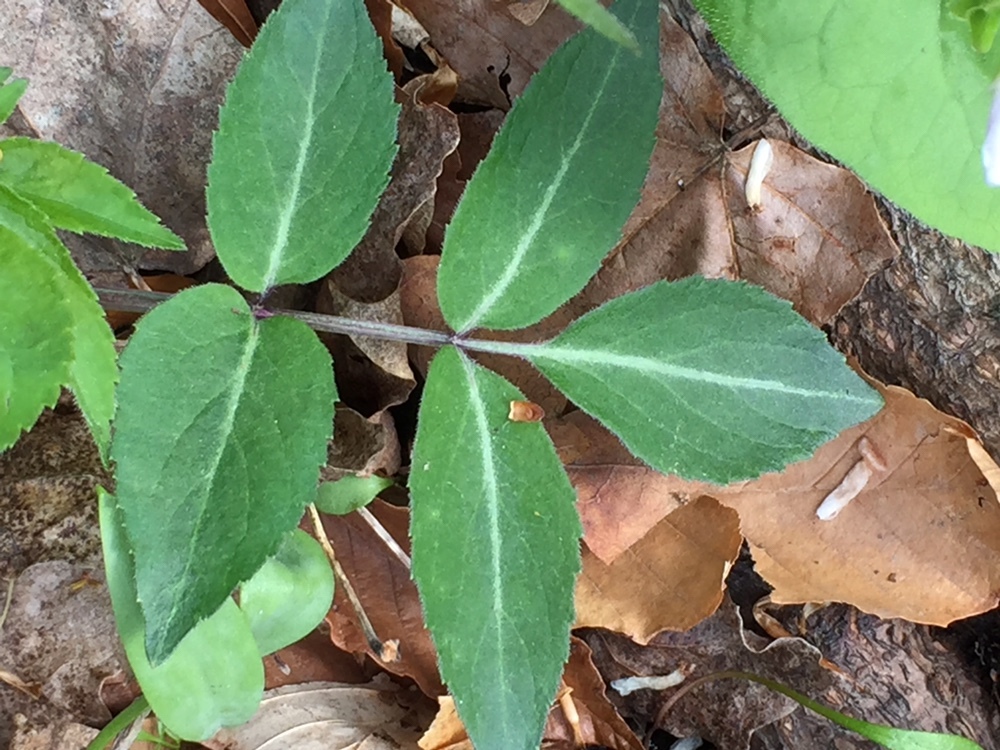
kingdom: Plantae
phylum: Tracheophyta
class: Magnoliopsida
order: Dipsacales
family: Viburnaceae
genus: Sambucus
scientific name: Sambucus canadensis
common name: American elder
